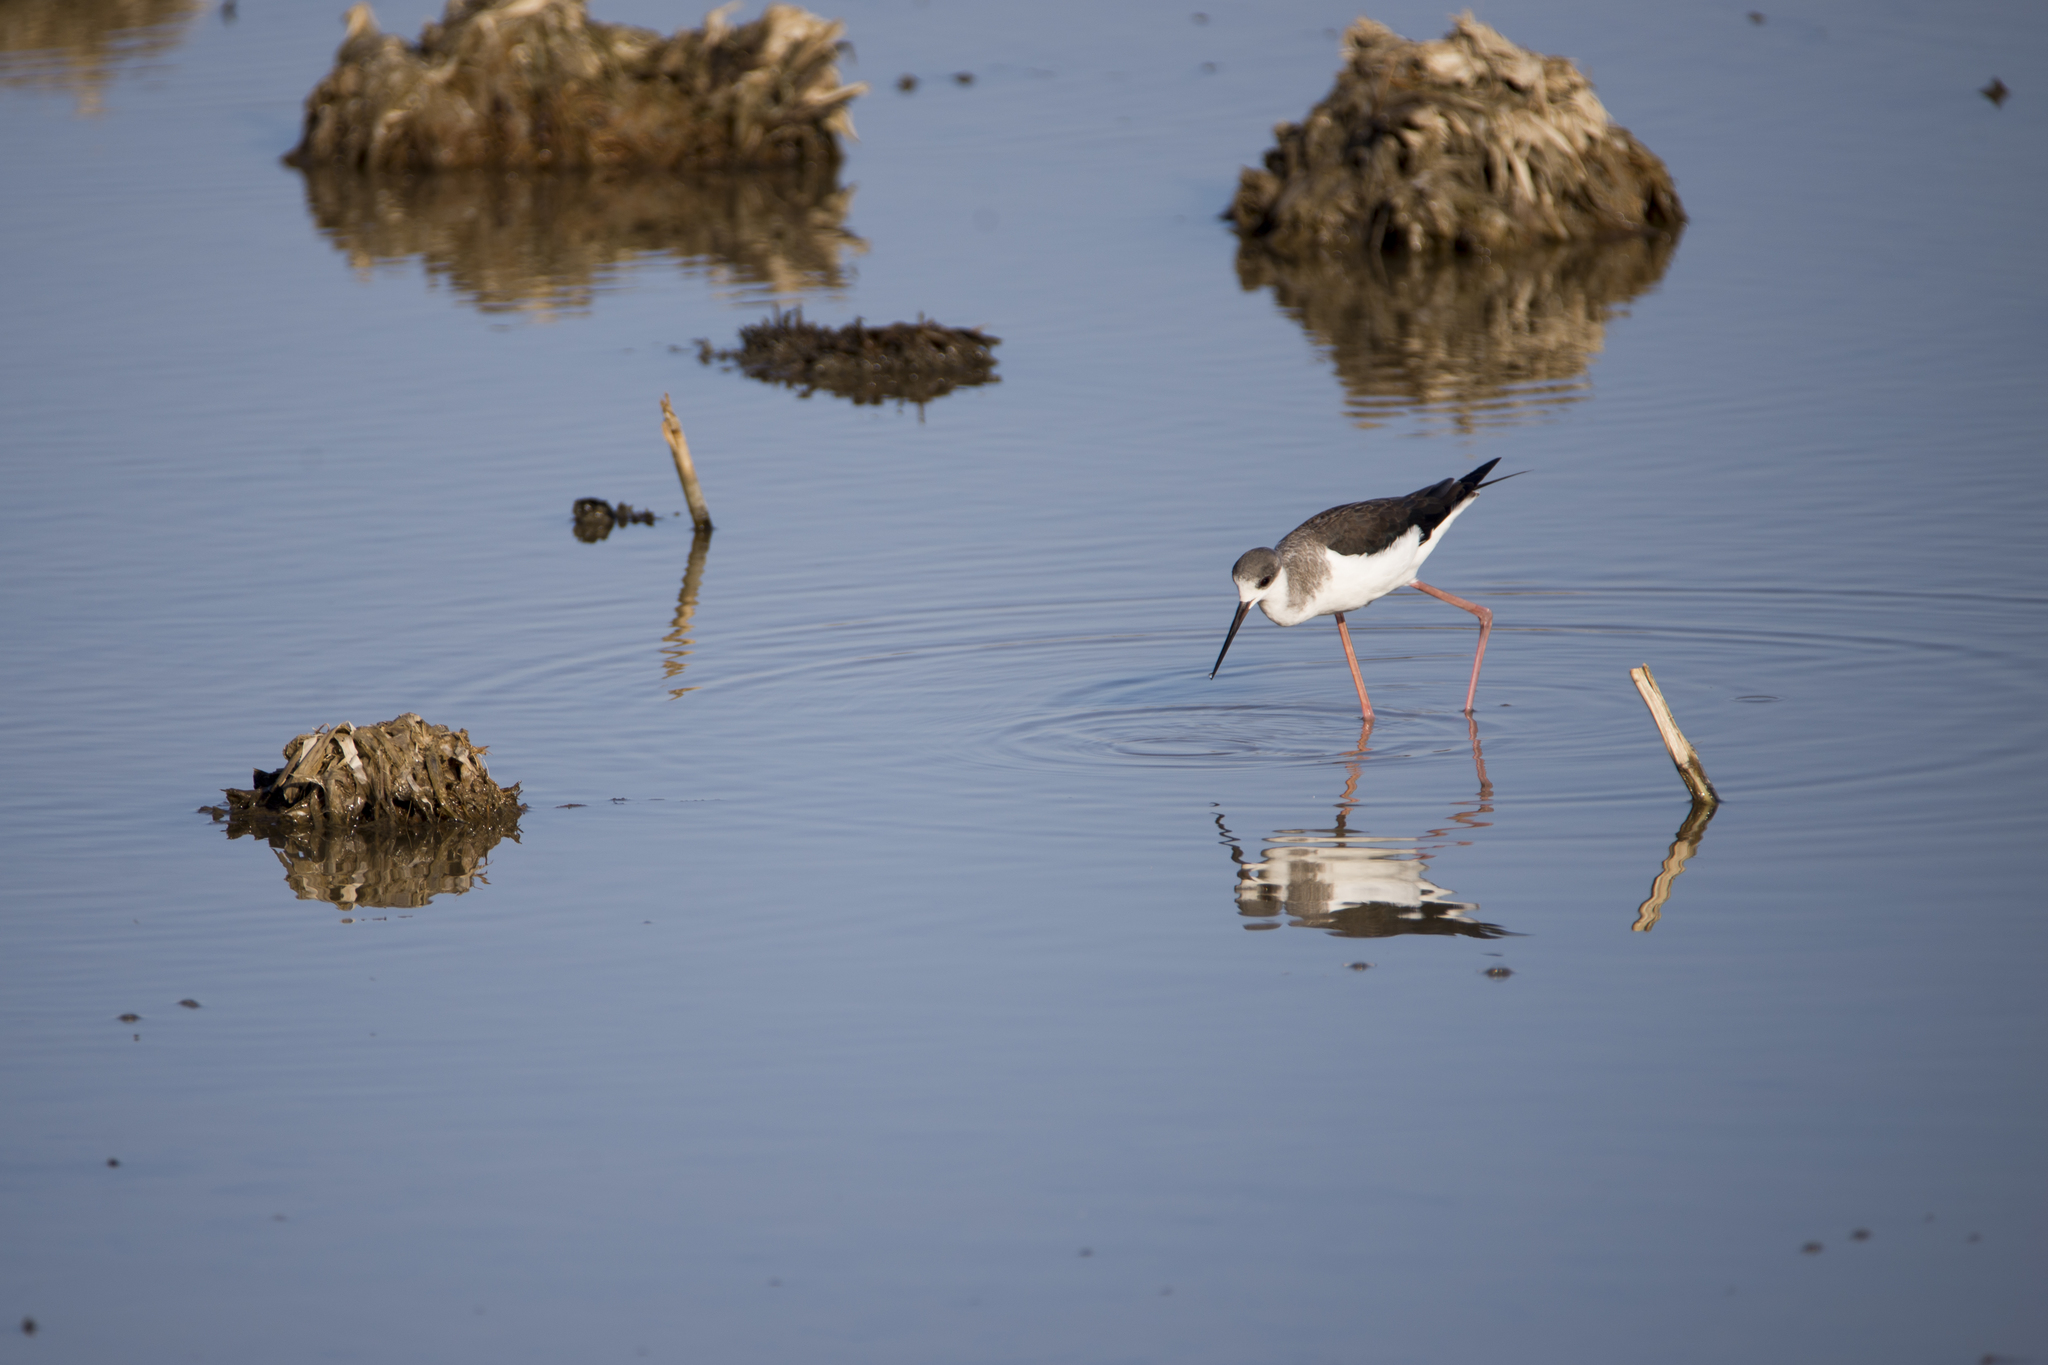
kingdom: Animalia
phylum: Chordata
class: Aves
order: Charadriiformes
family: Recurvirostridae
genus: Himantopus
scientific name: Himantopus himantopus
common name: Black-winged stilt
